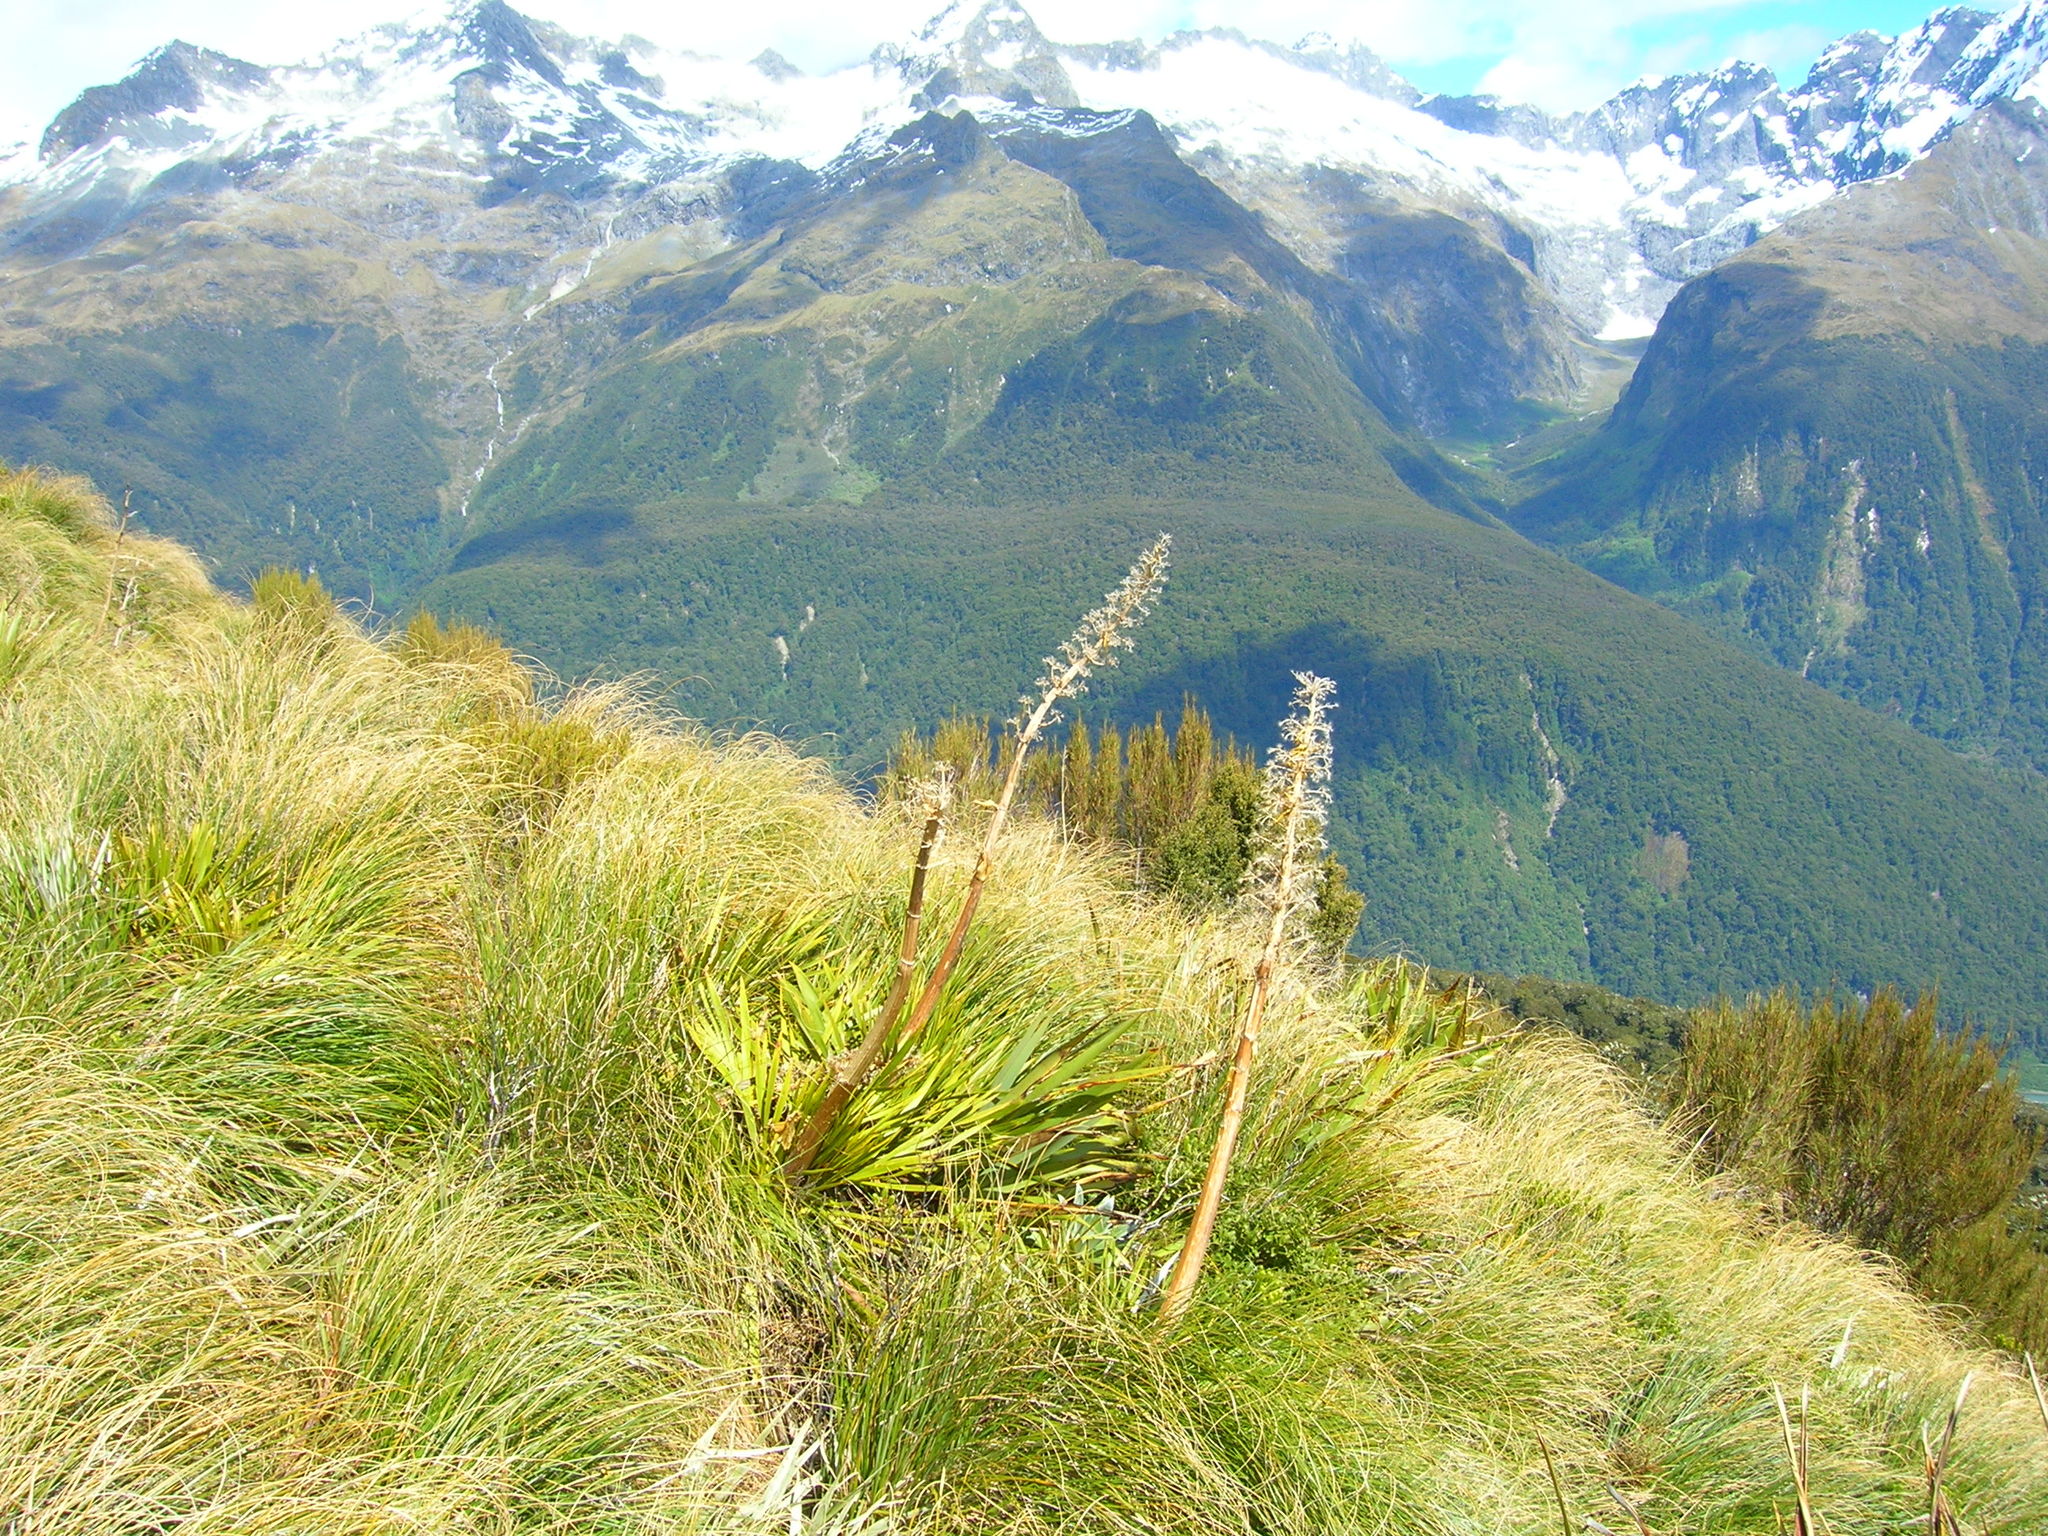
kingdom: Plantae
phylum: Tracheophyta
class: Magnoliopsida
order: Apiales
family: Apiaceae
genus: Aciphylla
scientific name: Aciphylla horrida
